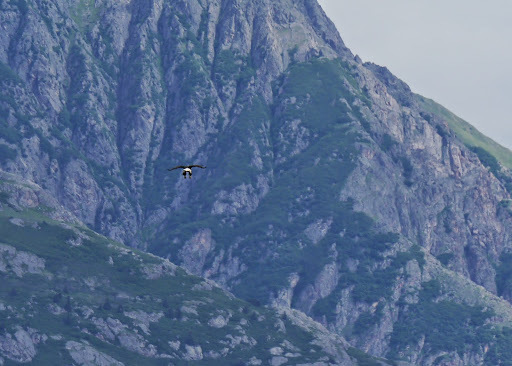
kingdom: Animalia
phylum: Chordata
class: Aves
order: Accipitriformes
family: Accipitridae
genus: Haliaeetus
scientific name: Haliaeetus leucocephalus
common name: Bald eagle
